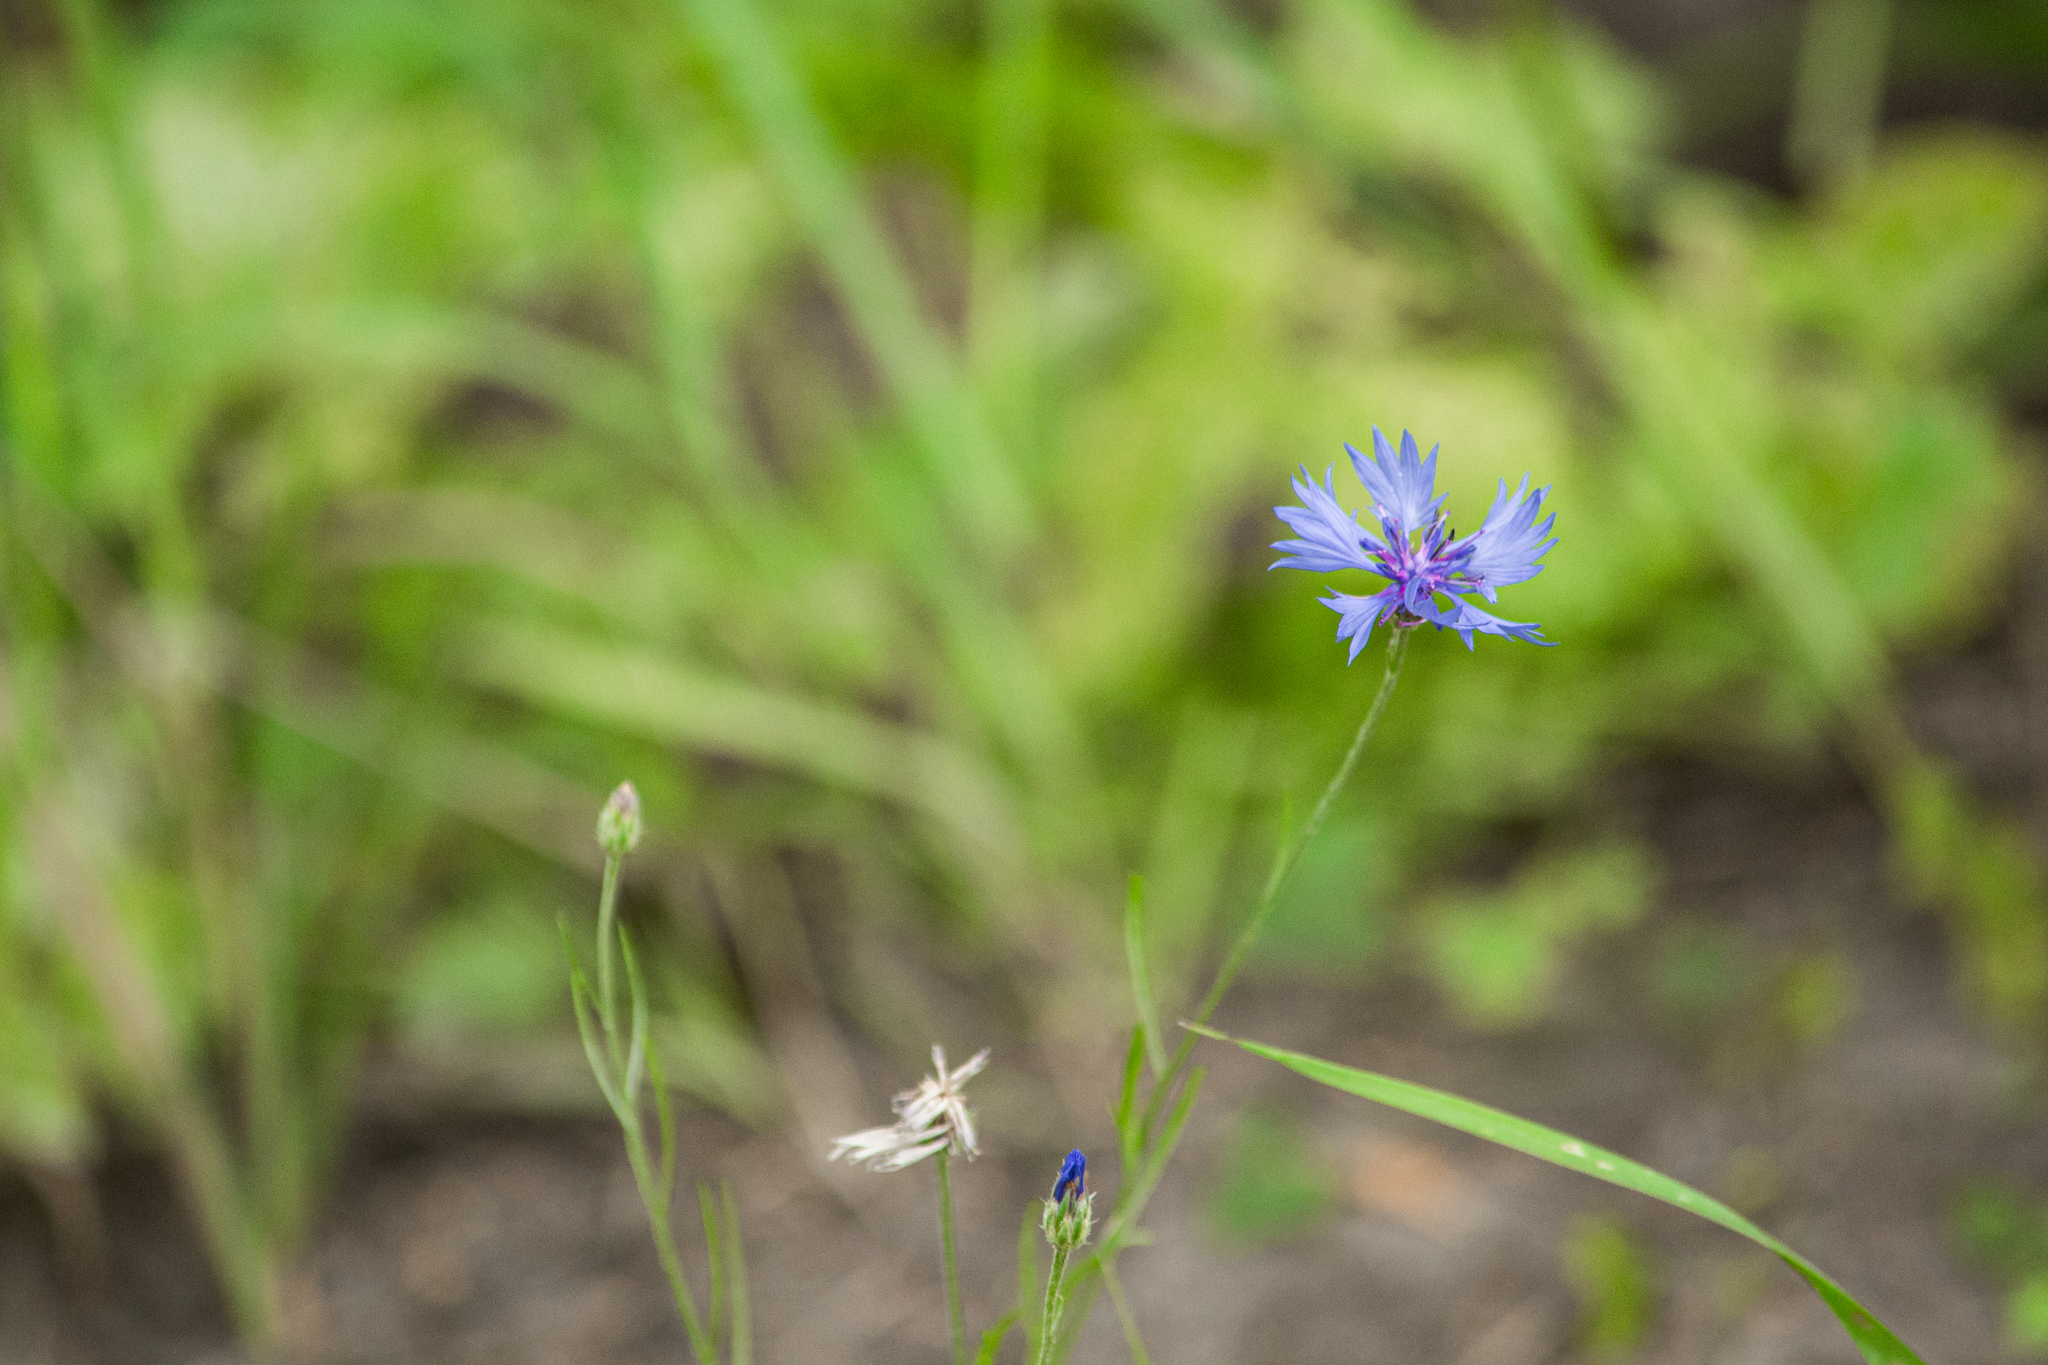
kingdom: Plantae
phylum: Tracheophyta
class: Magnoliopsida
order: Asterales
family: Asteraceae
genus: Centaurea
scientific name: Centaurea cyanus
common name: Cornflower
